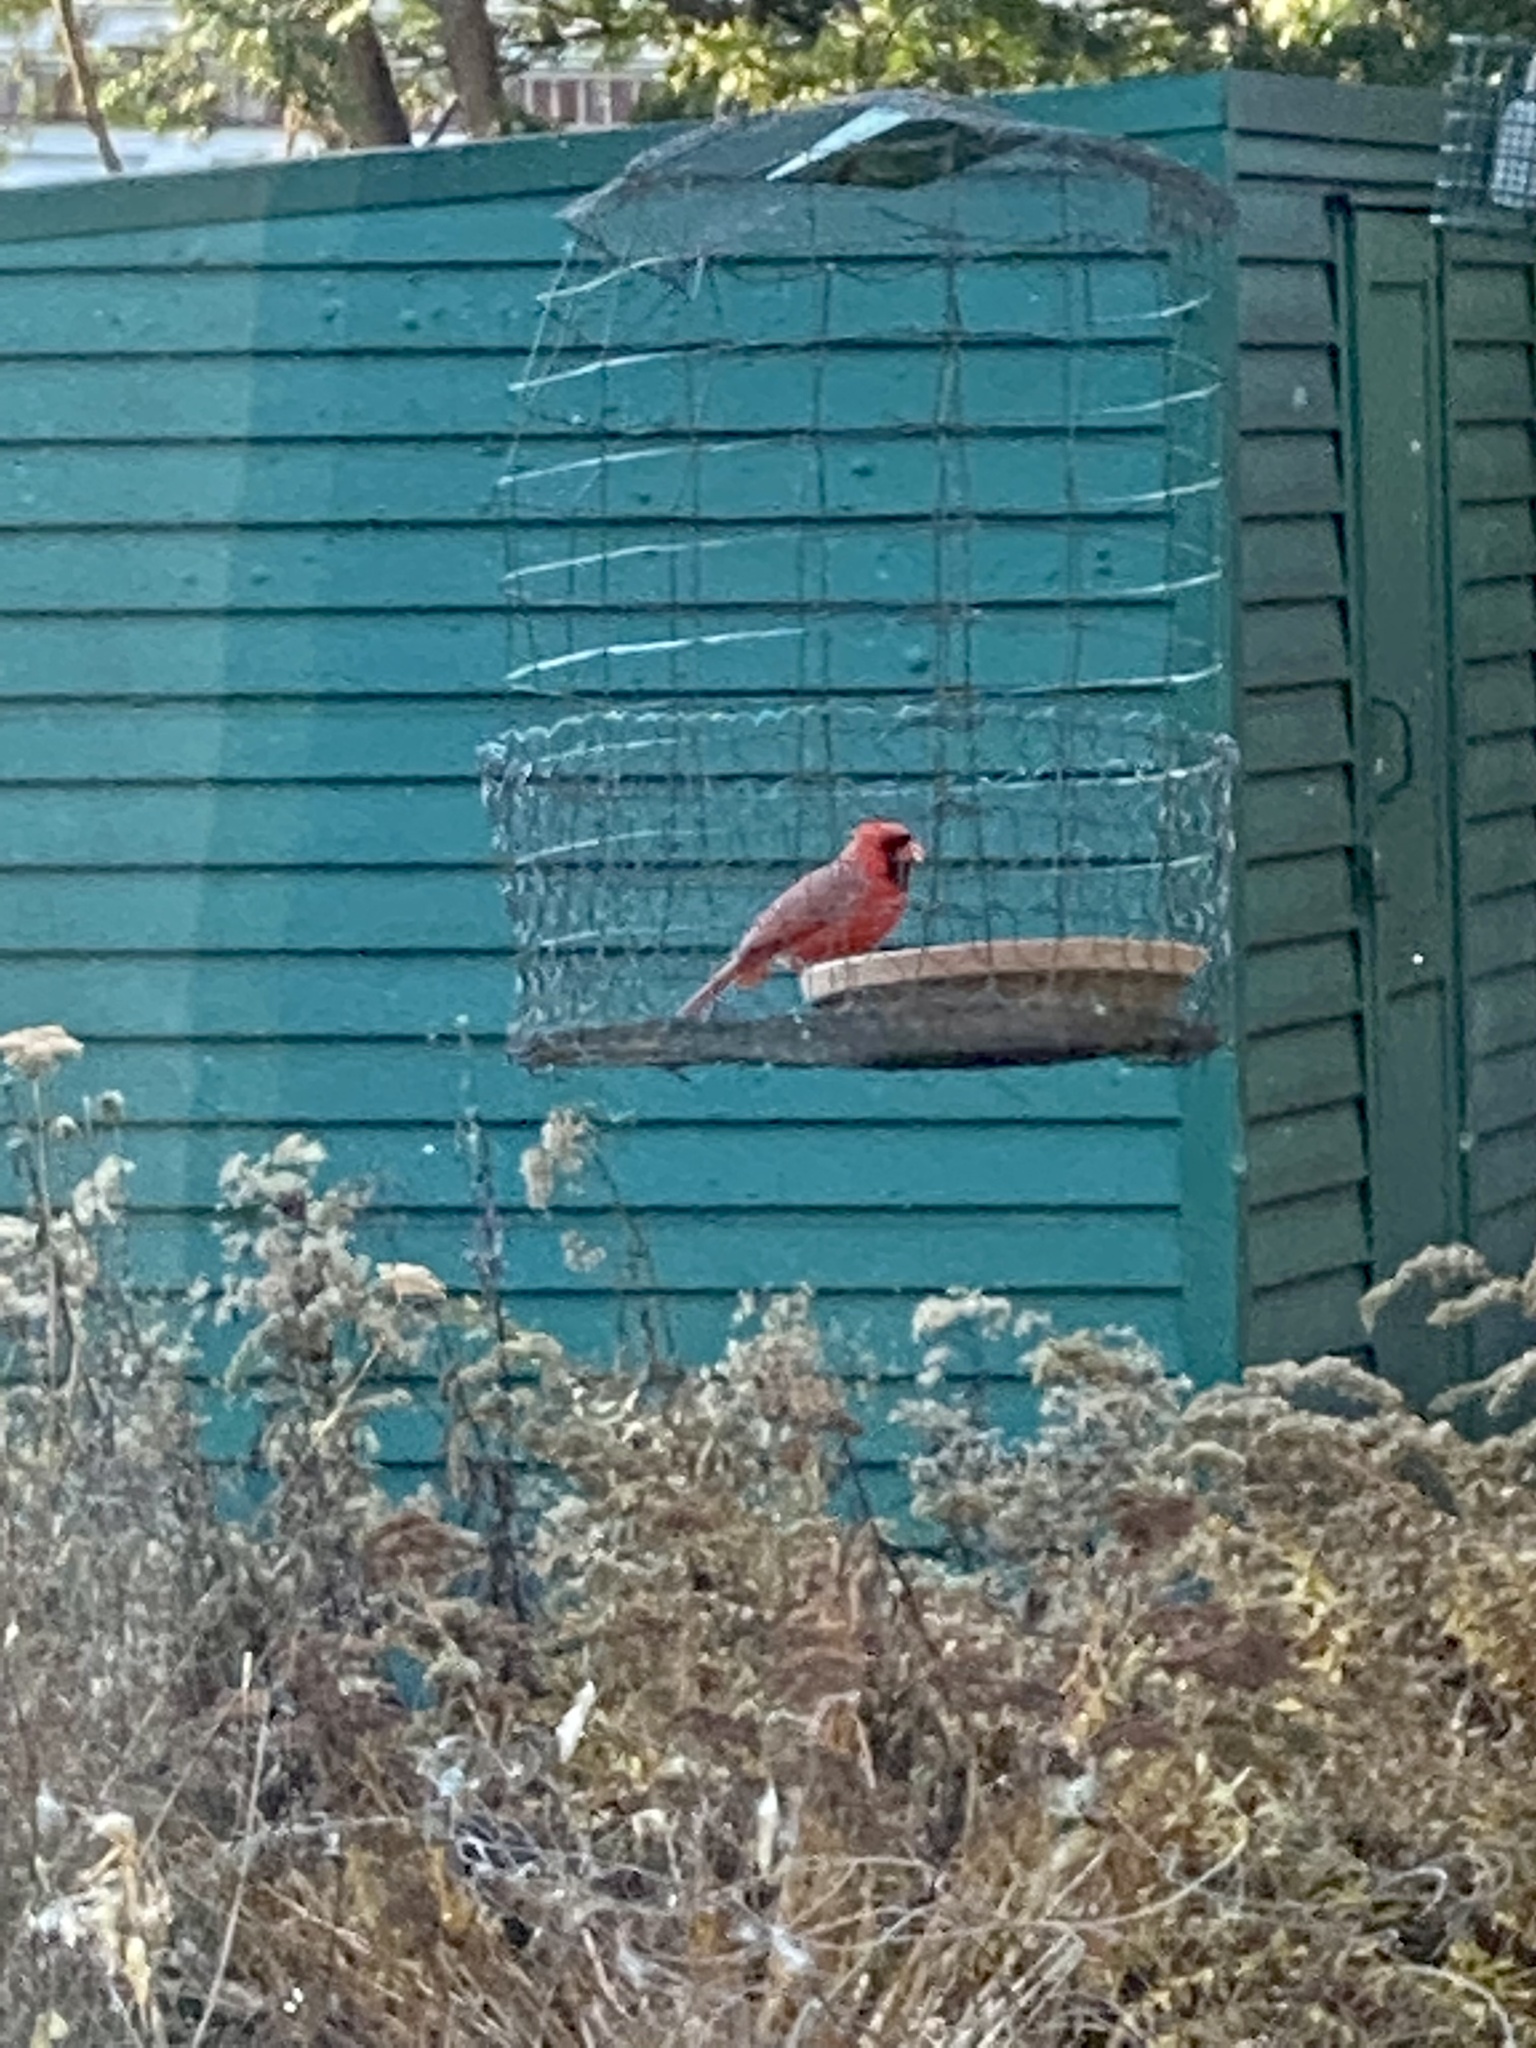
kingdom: Animalia
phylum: Chordata
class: Aves
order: Passeriformes
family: Cardinalidae
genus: Cardinalis
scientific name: Cardinalis cardinalis
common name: Northern cardinal
